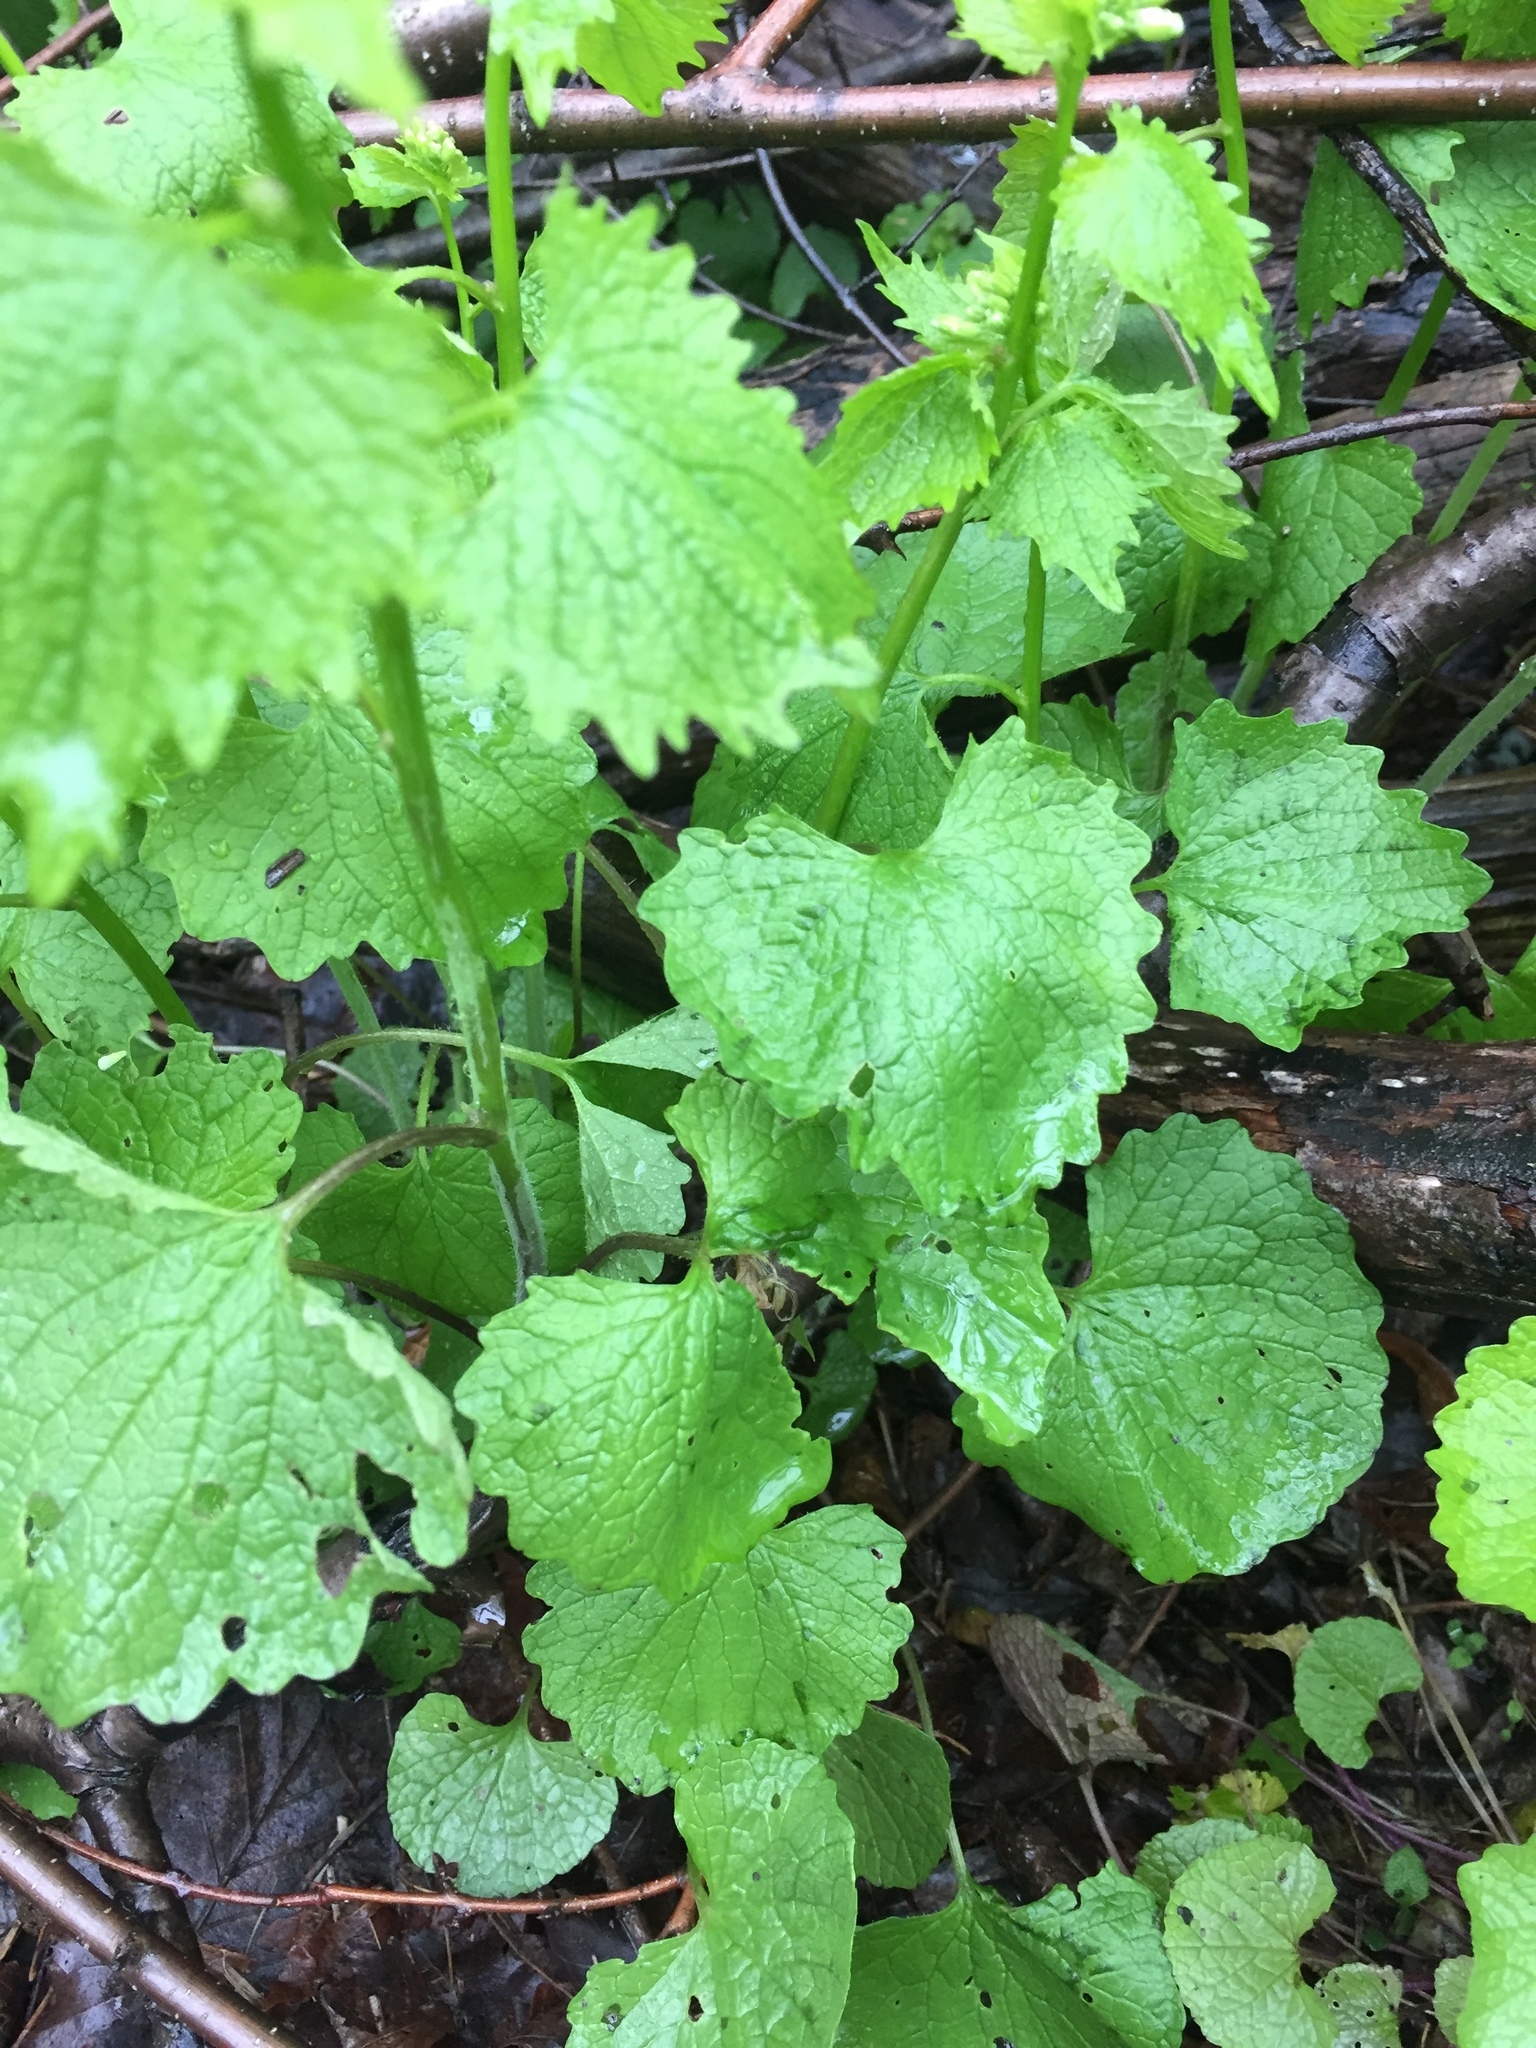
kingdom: Plantae
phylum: Tracheophyta
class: Magnoliopsida
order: Brassicales
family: Brassicaceae
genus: Alliaria
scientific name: Alliaria petiolata
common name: Garlic mustard
